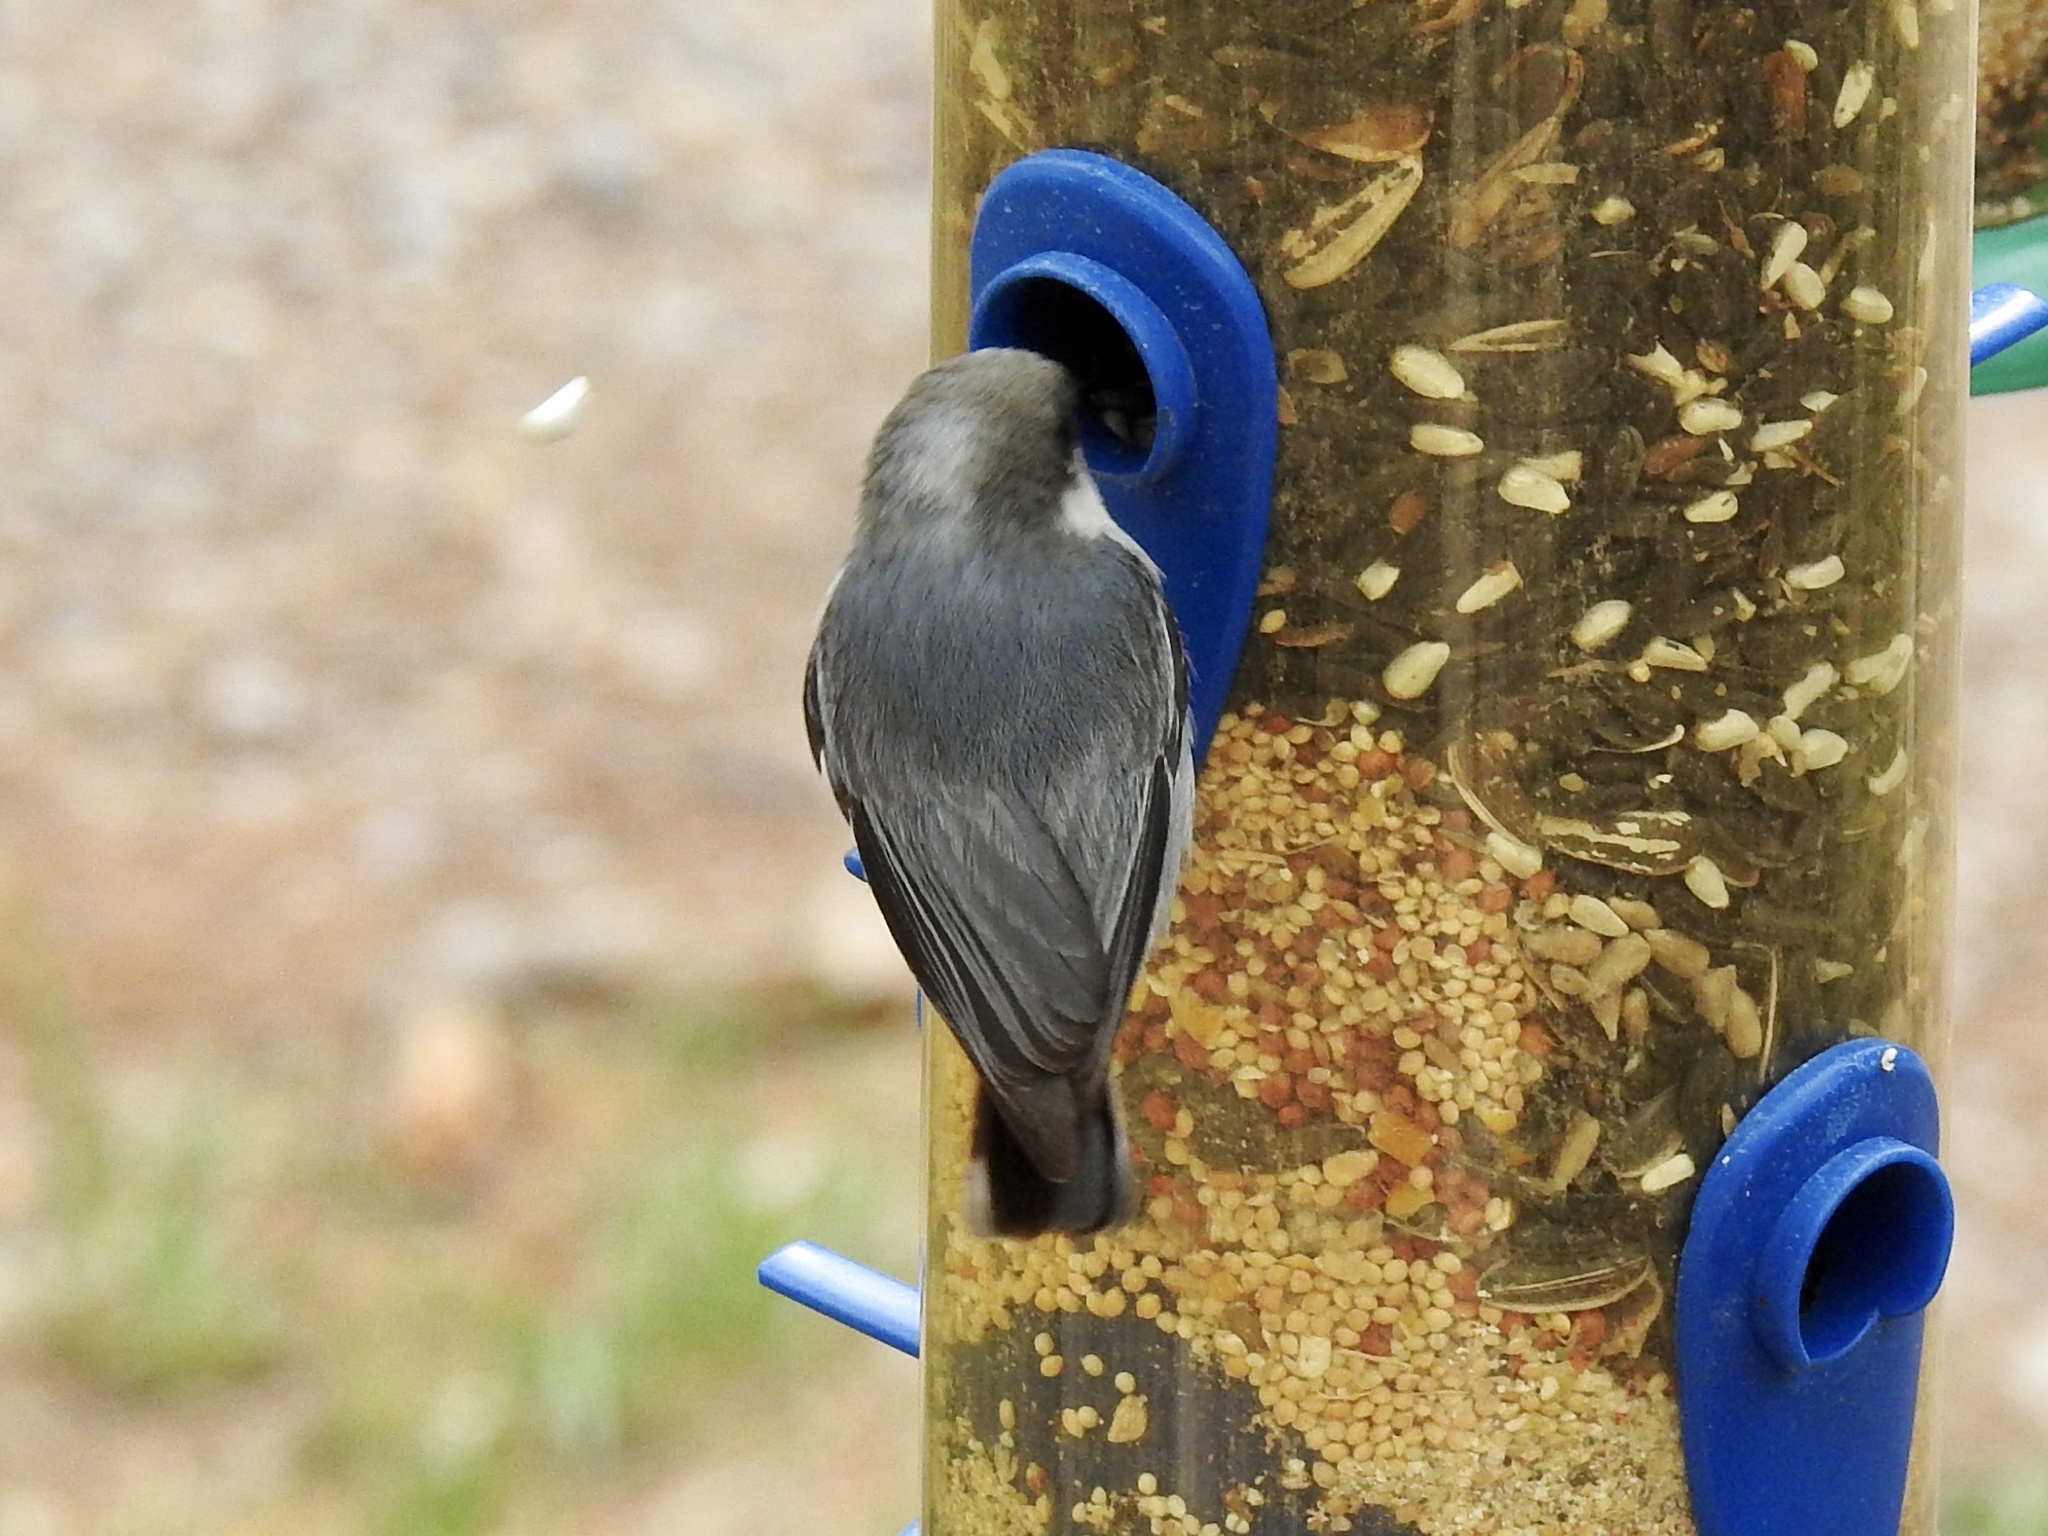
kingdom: Animalia
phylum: Chordata
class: Aves
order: Passeriformes
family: Sittidae
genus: Sitta
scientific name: Sitta pygmaea
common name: Pygmy nuthatch
